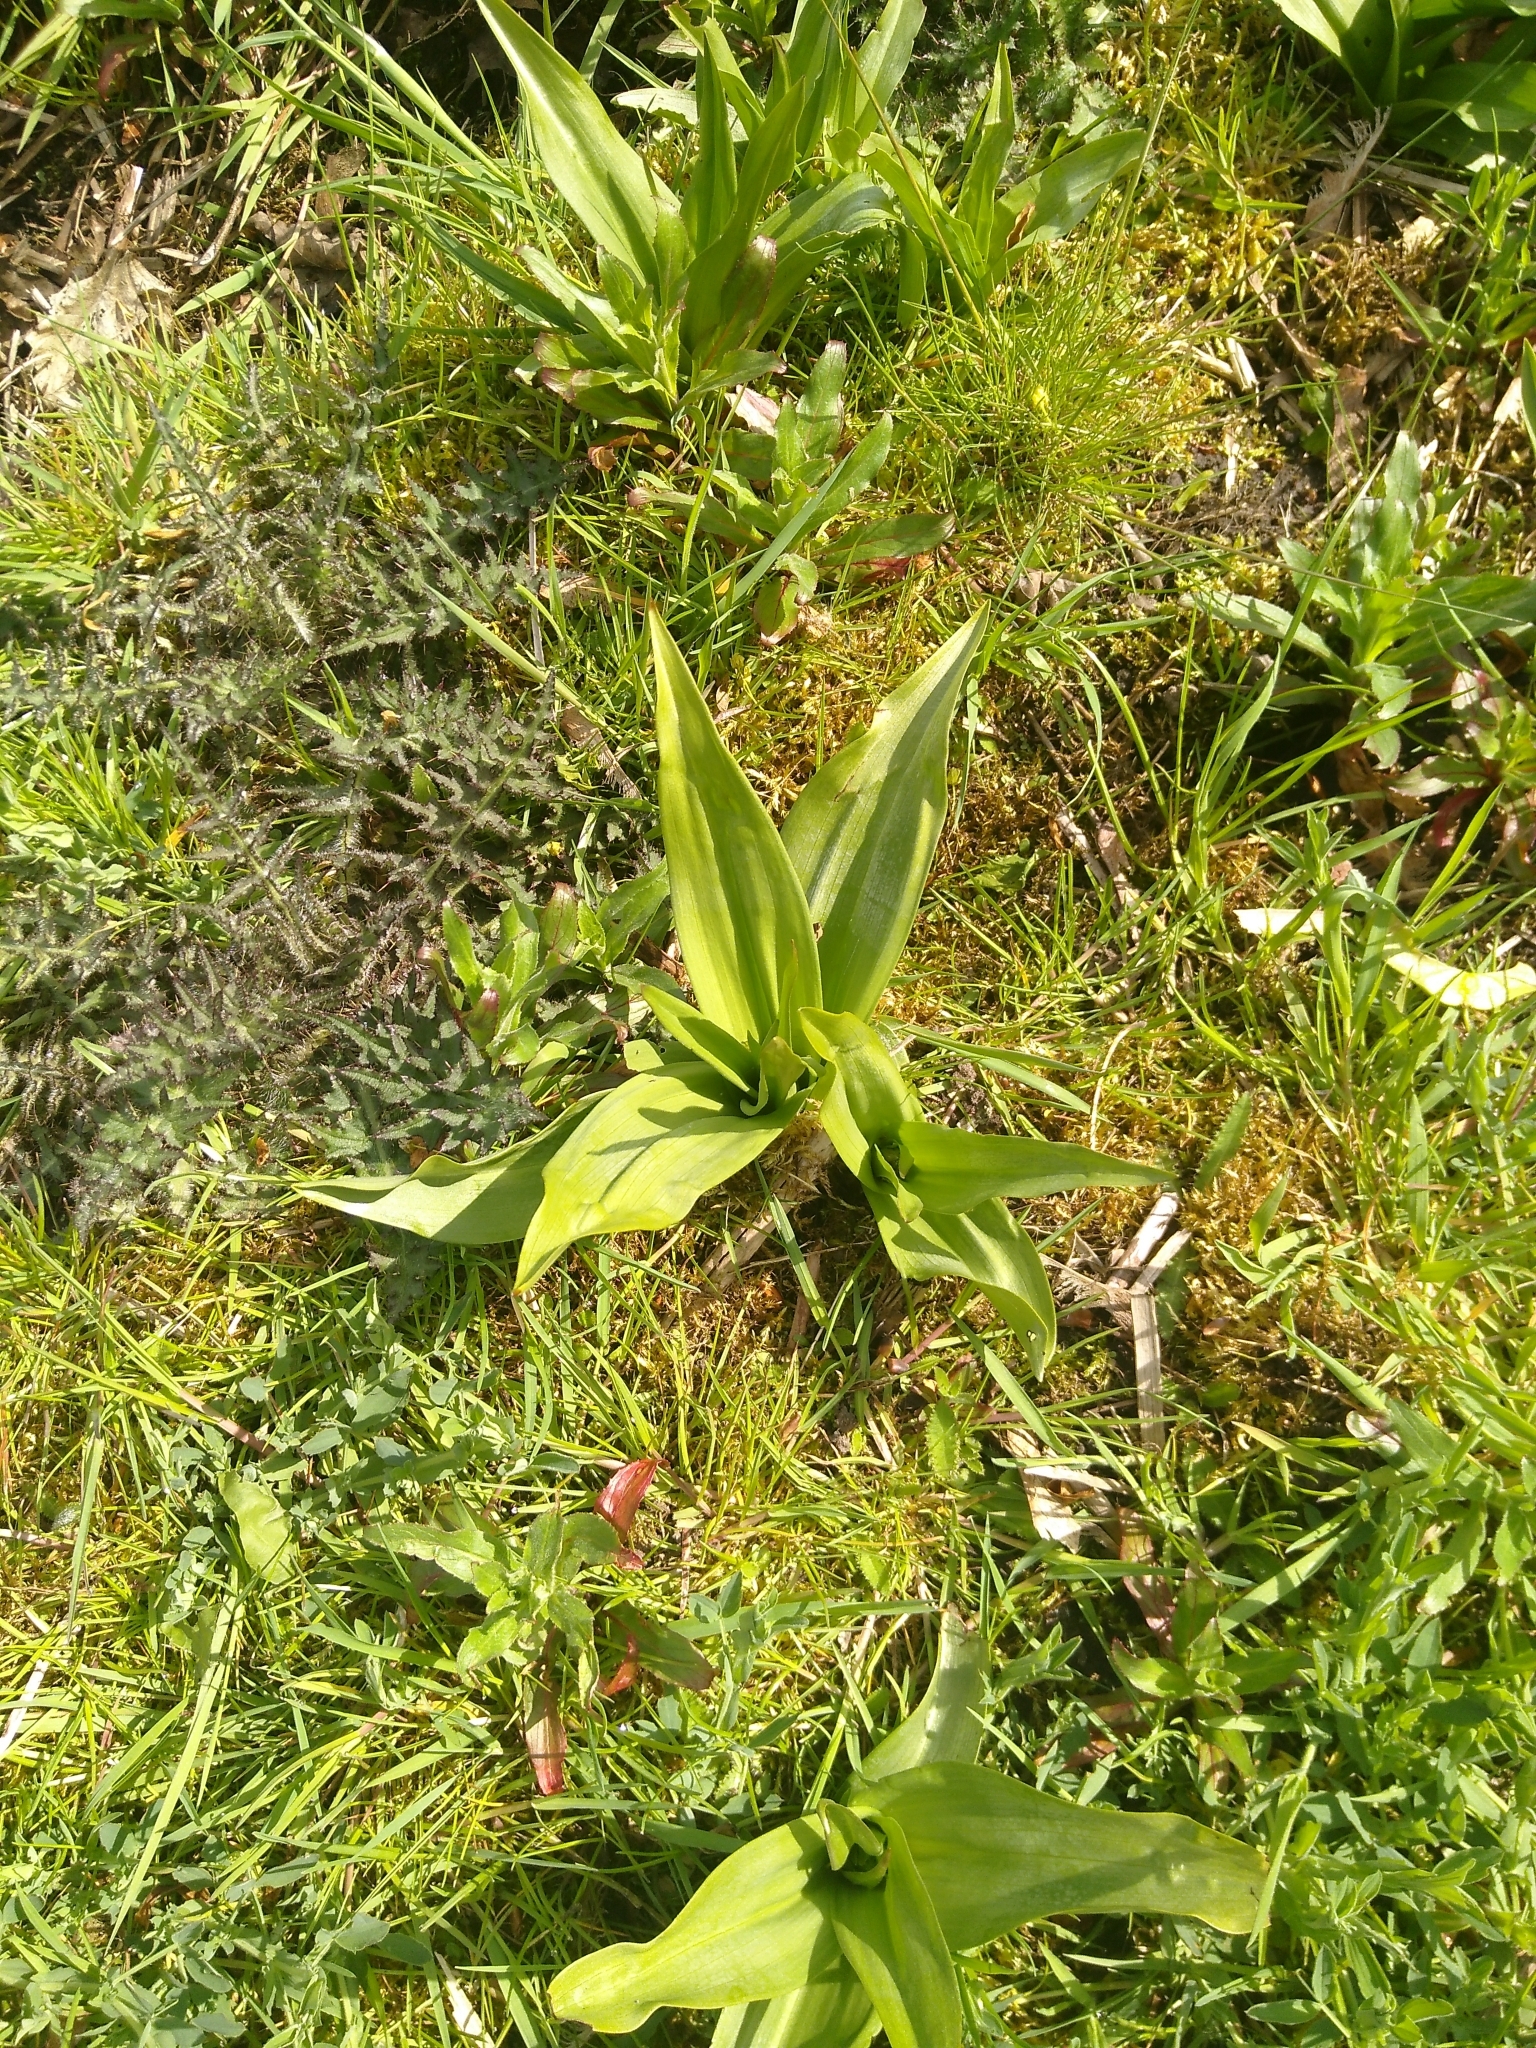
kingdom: Plantae
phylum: Tracheophyta
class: Liliopsida
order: Asparagales
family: Orchidaceae
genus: Dactylorhiza
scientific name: Dactylorhiza majalis
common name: Marsh orchid
